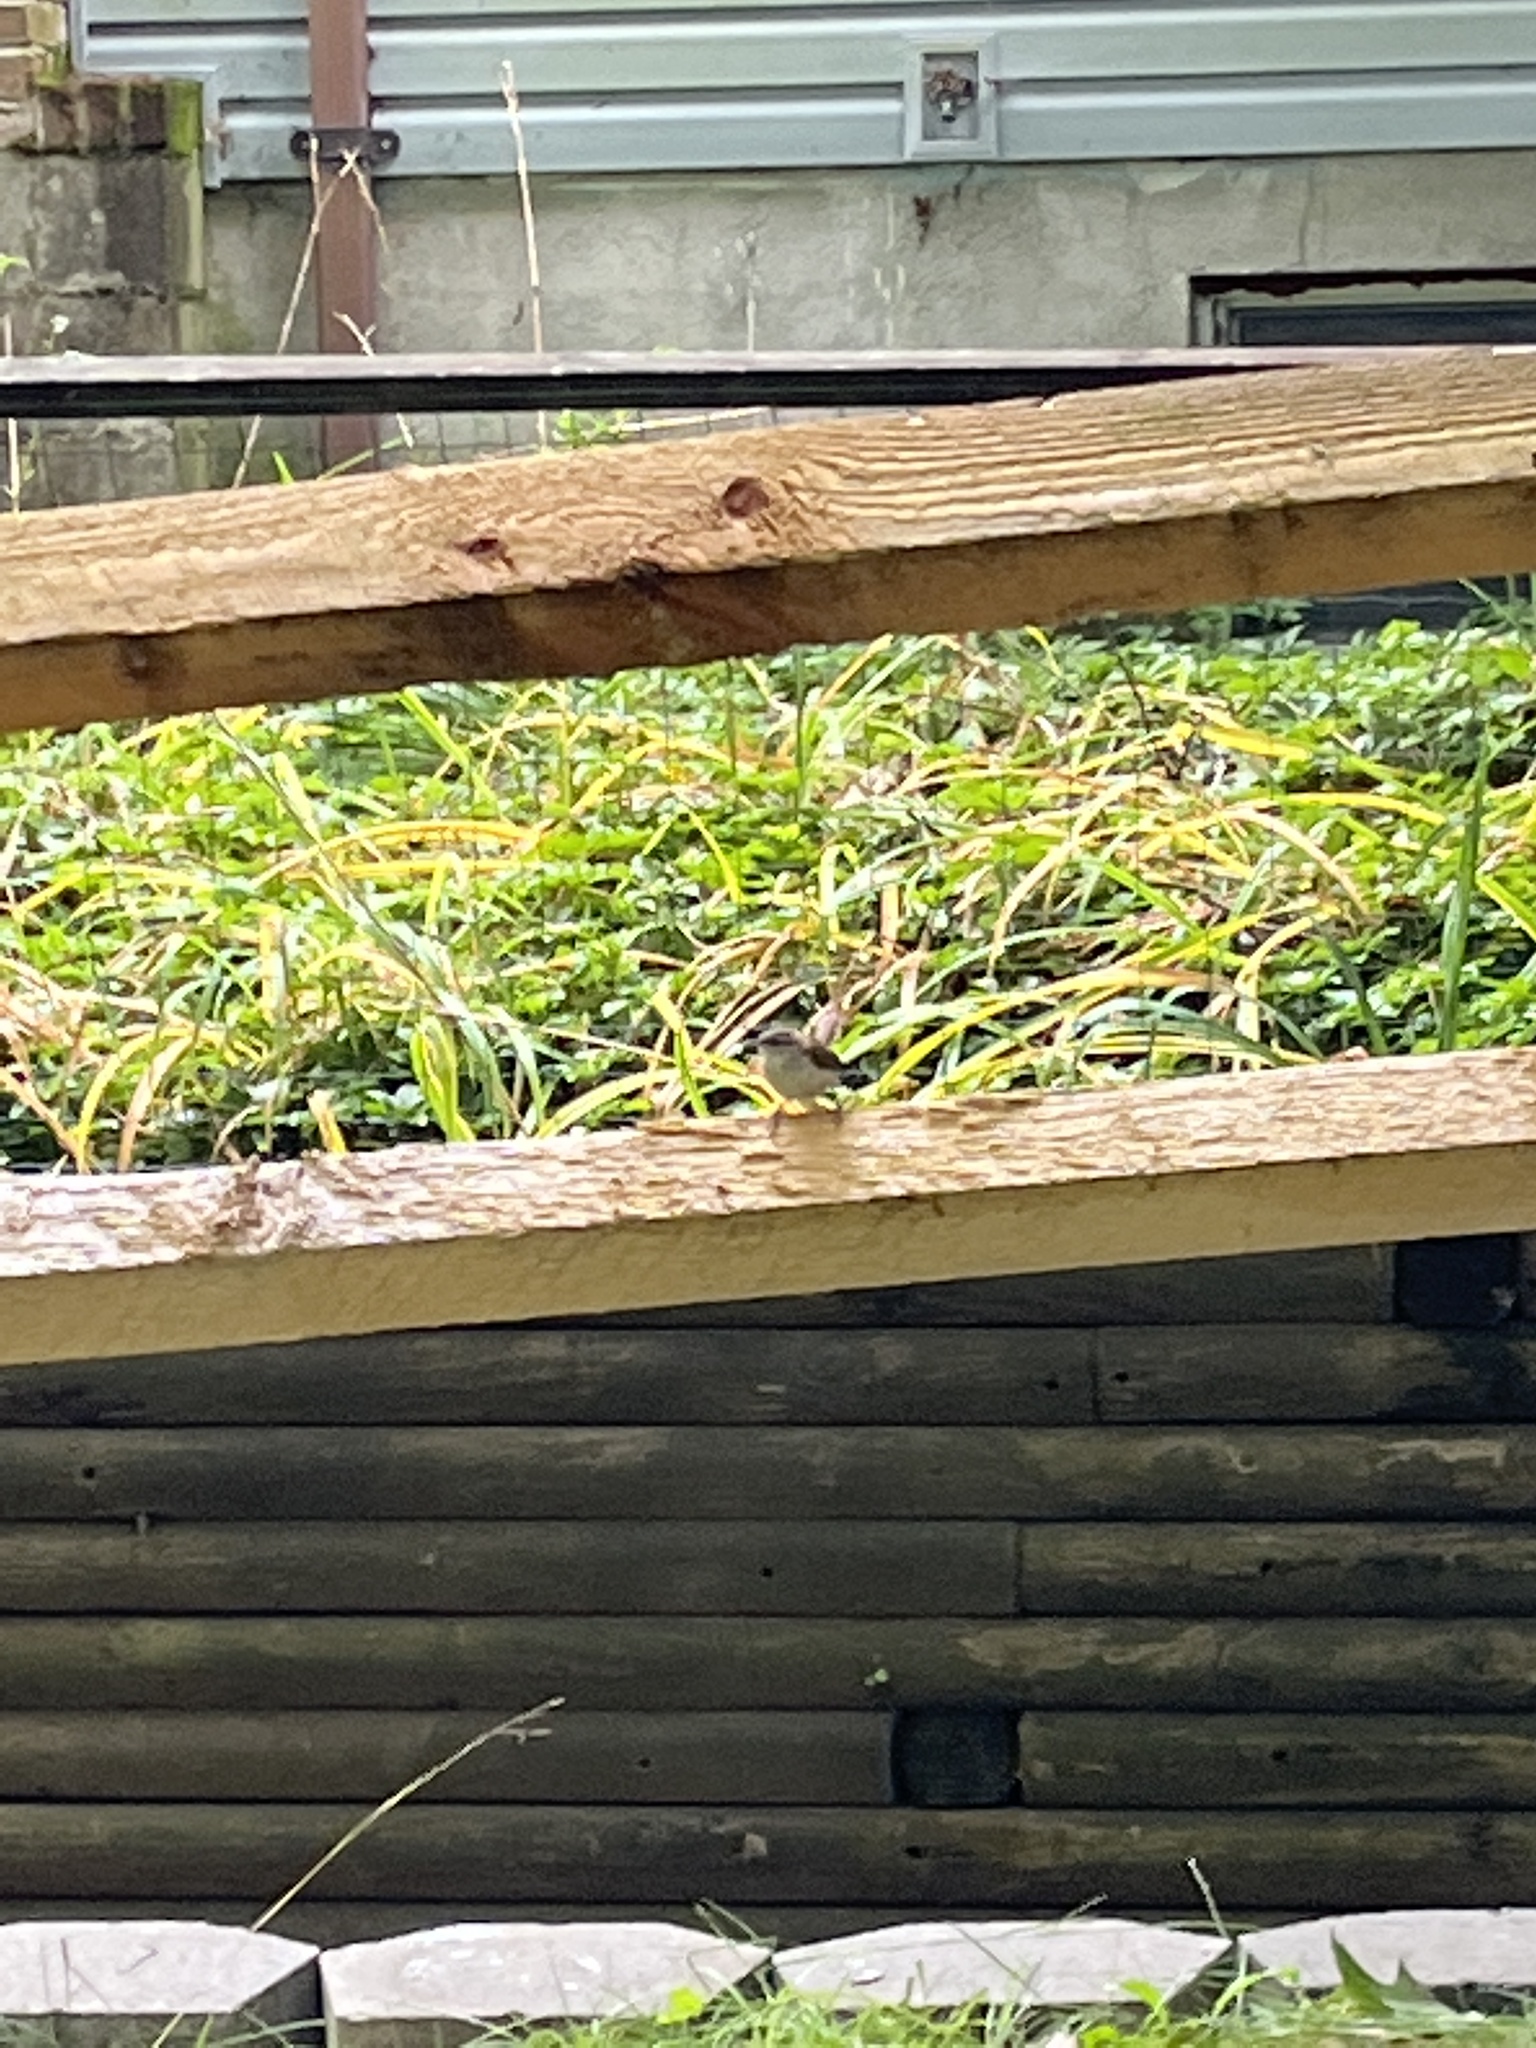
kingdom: Animalia
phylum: Chordata
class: Aves
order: Passeriformes
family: Troglodytidae
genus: Thryothorus
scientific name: Thryothorus ludovicianus
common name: Carolina wren
